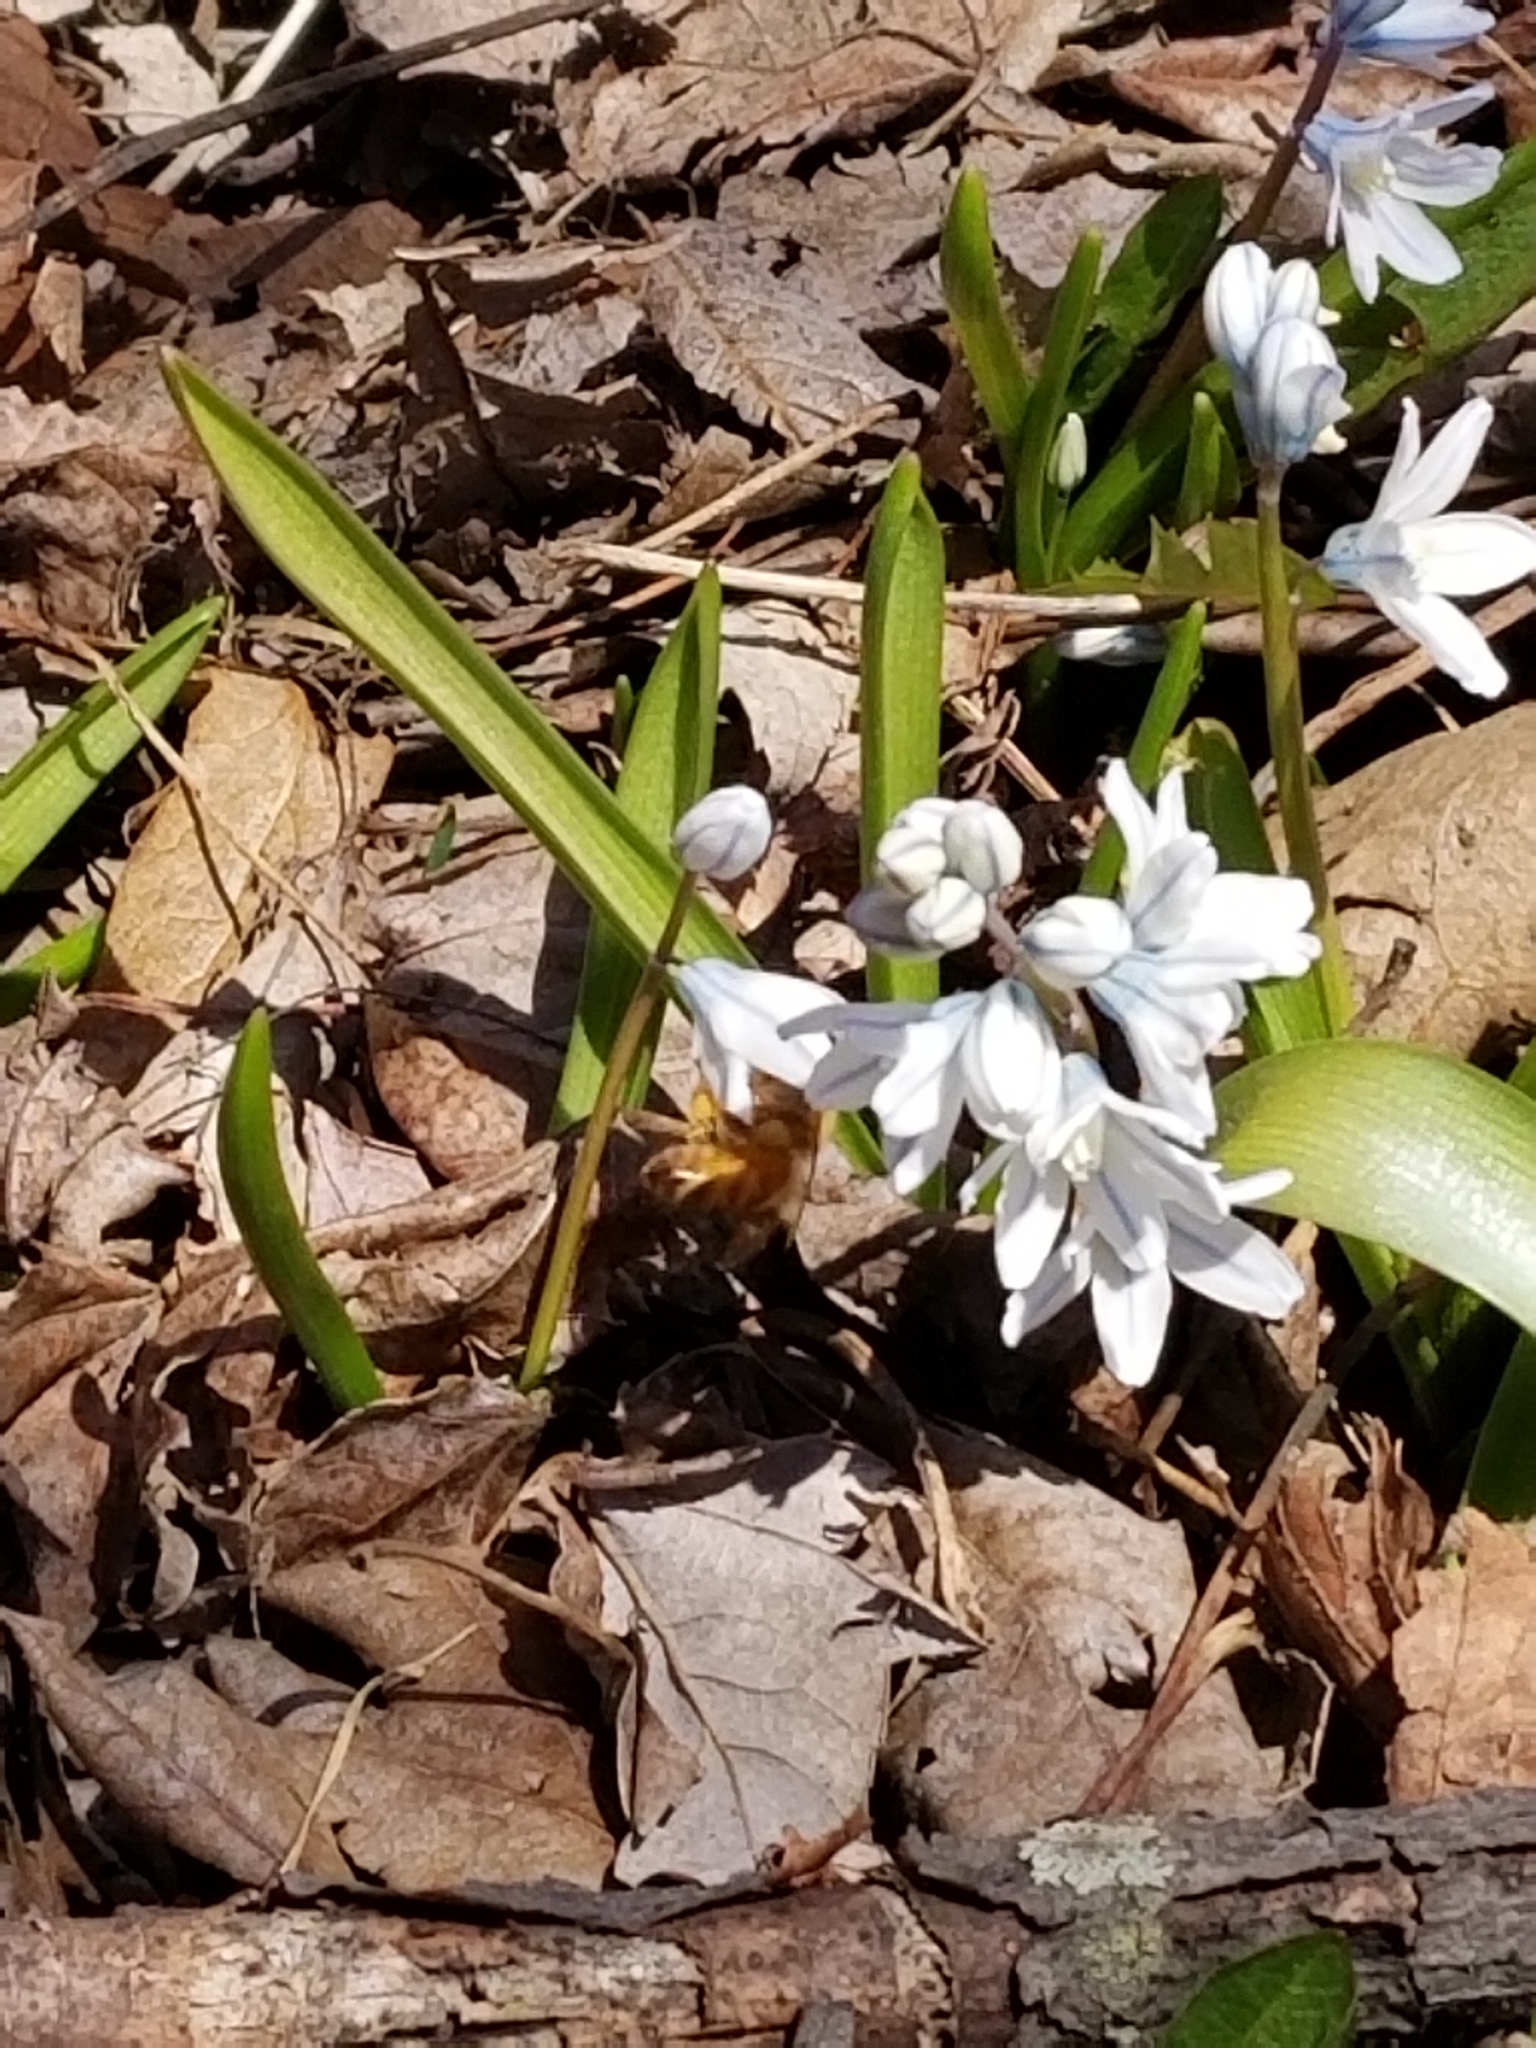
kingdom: Plantae
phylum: Tracheophyta
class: Liliopsida
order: Asparagales
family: Asparagaceae
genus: Puschkinia
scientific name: Puschkinia scilloides
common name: Striped squill
